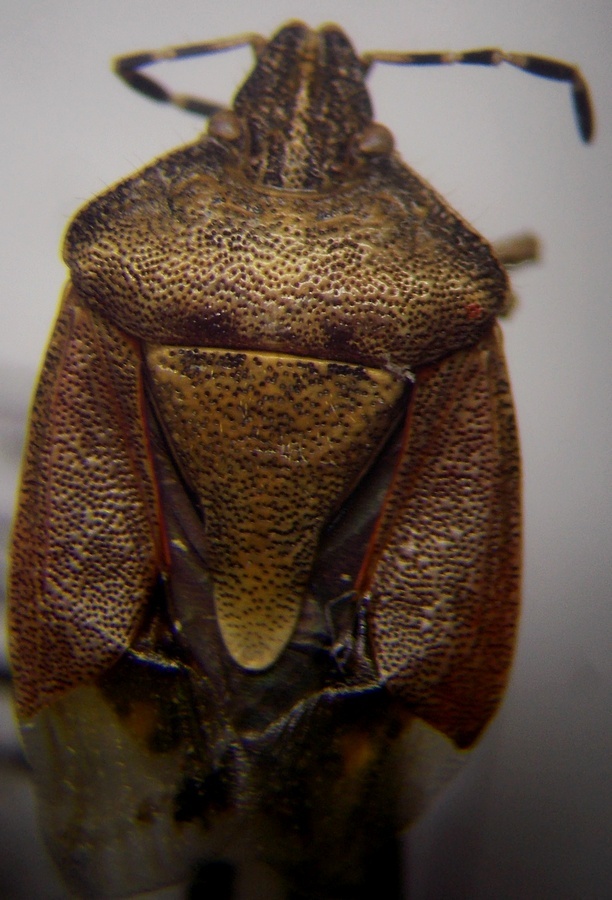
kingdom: Animalia
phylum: Arthropoda
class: Insecta
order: Hemiptera
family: Pentatomidae
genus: Dolycoris
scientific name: Dolycoris baccarum
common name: Sloe bug
